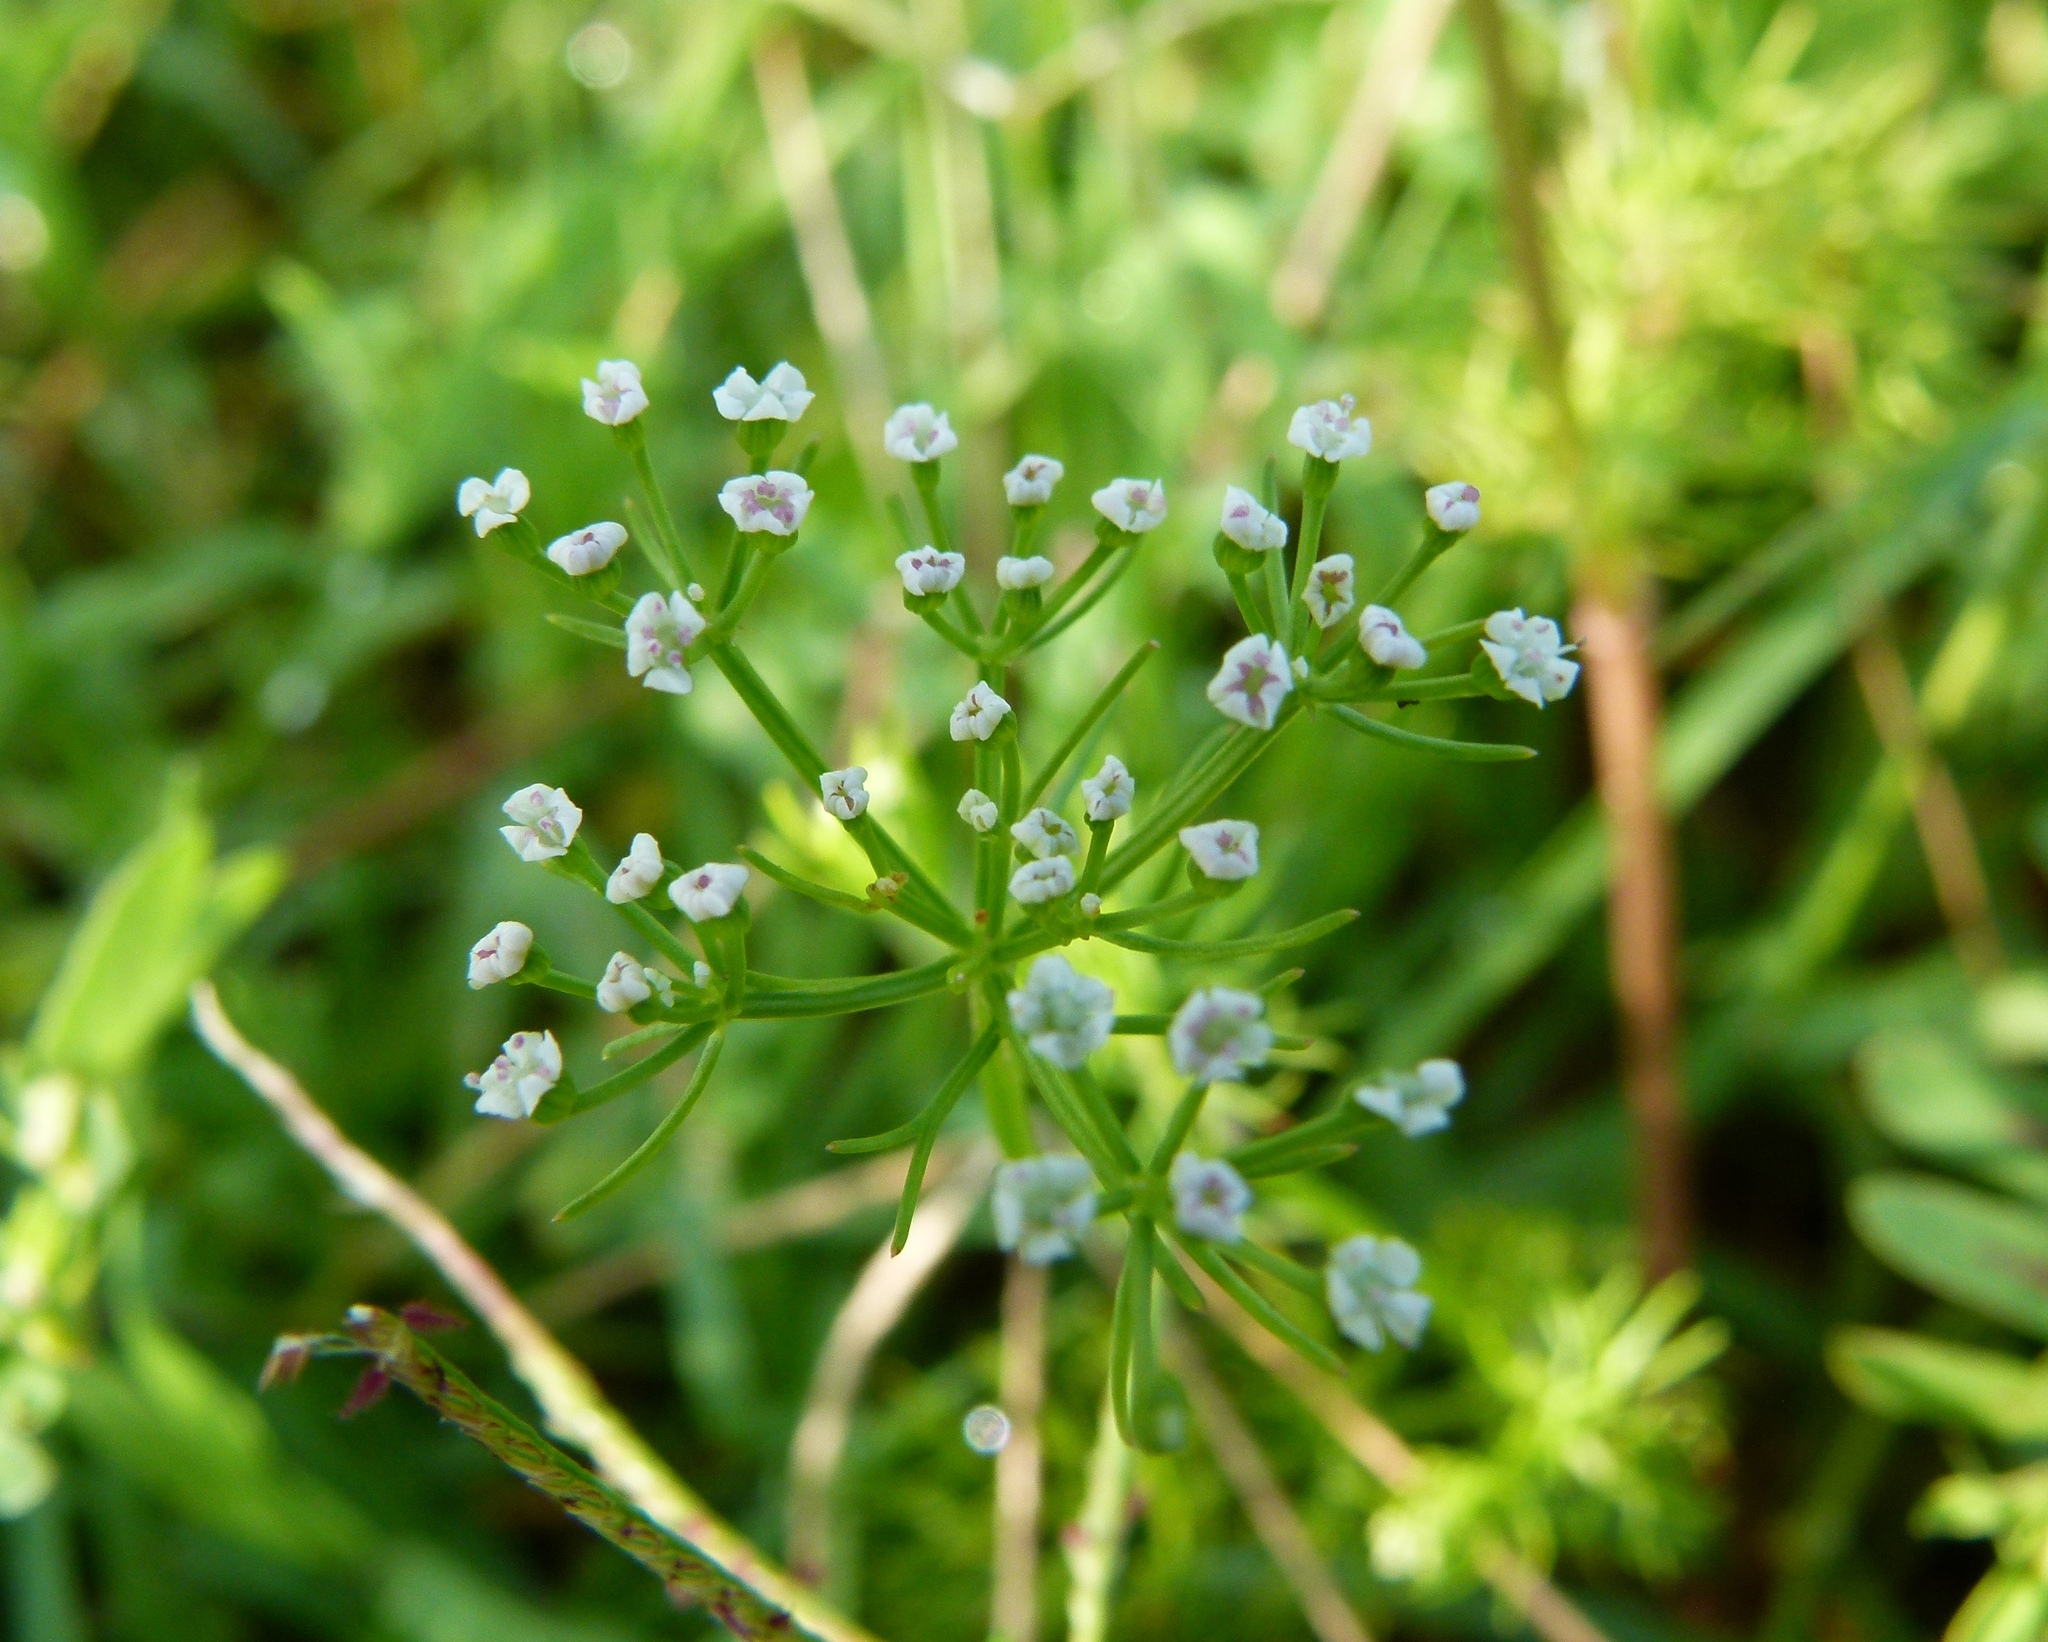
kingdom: Plantae
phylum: Tracheophyta
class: Magnoliopsida
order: Apiales
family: Apiaceae
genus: Ptilimnium
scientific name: Ptilimnium capillaceum
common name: Herbwilliam
